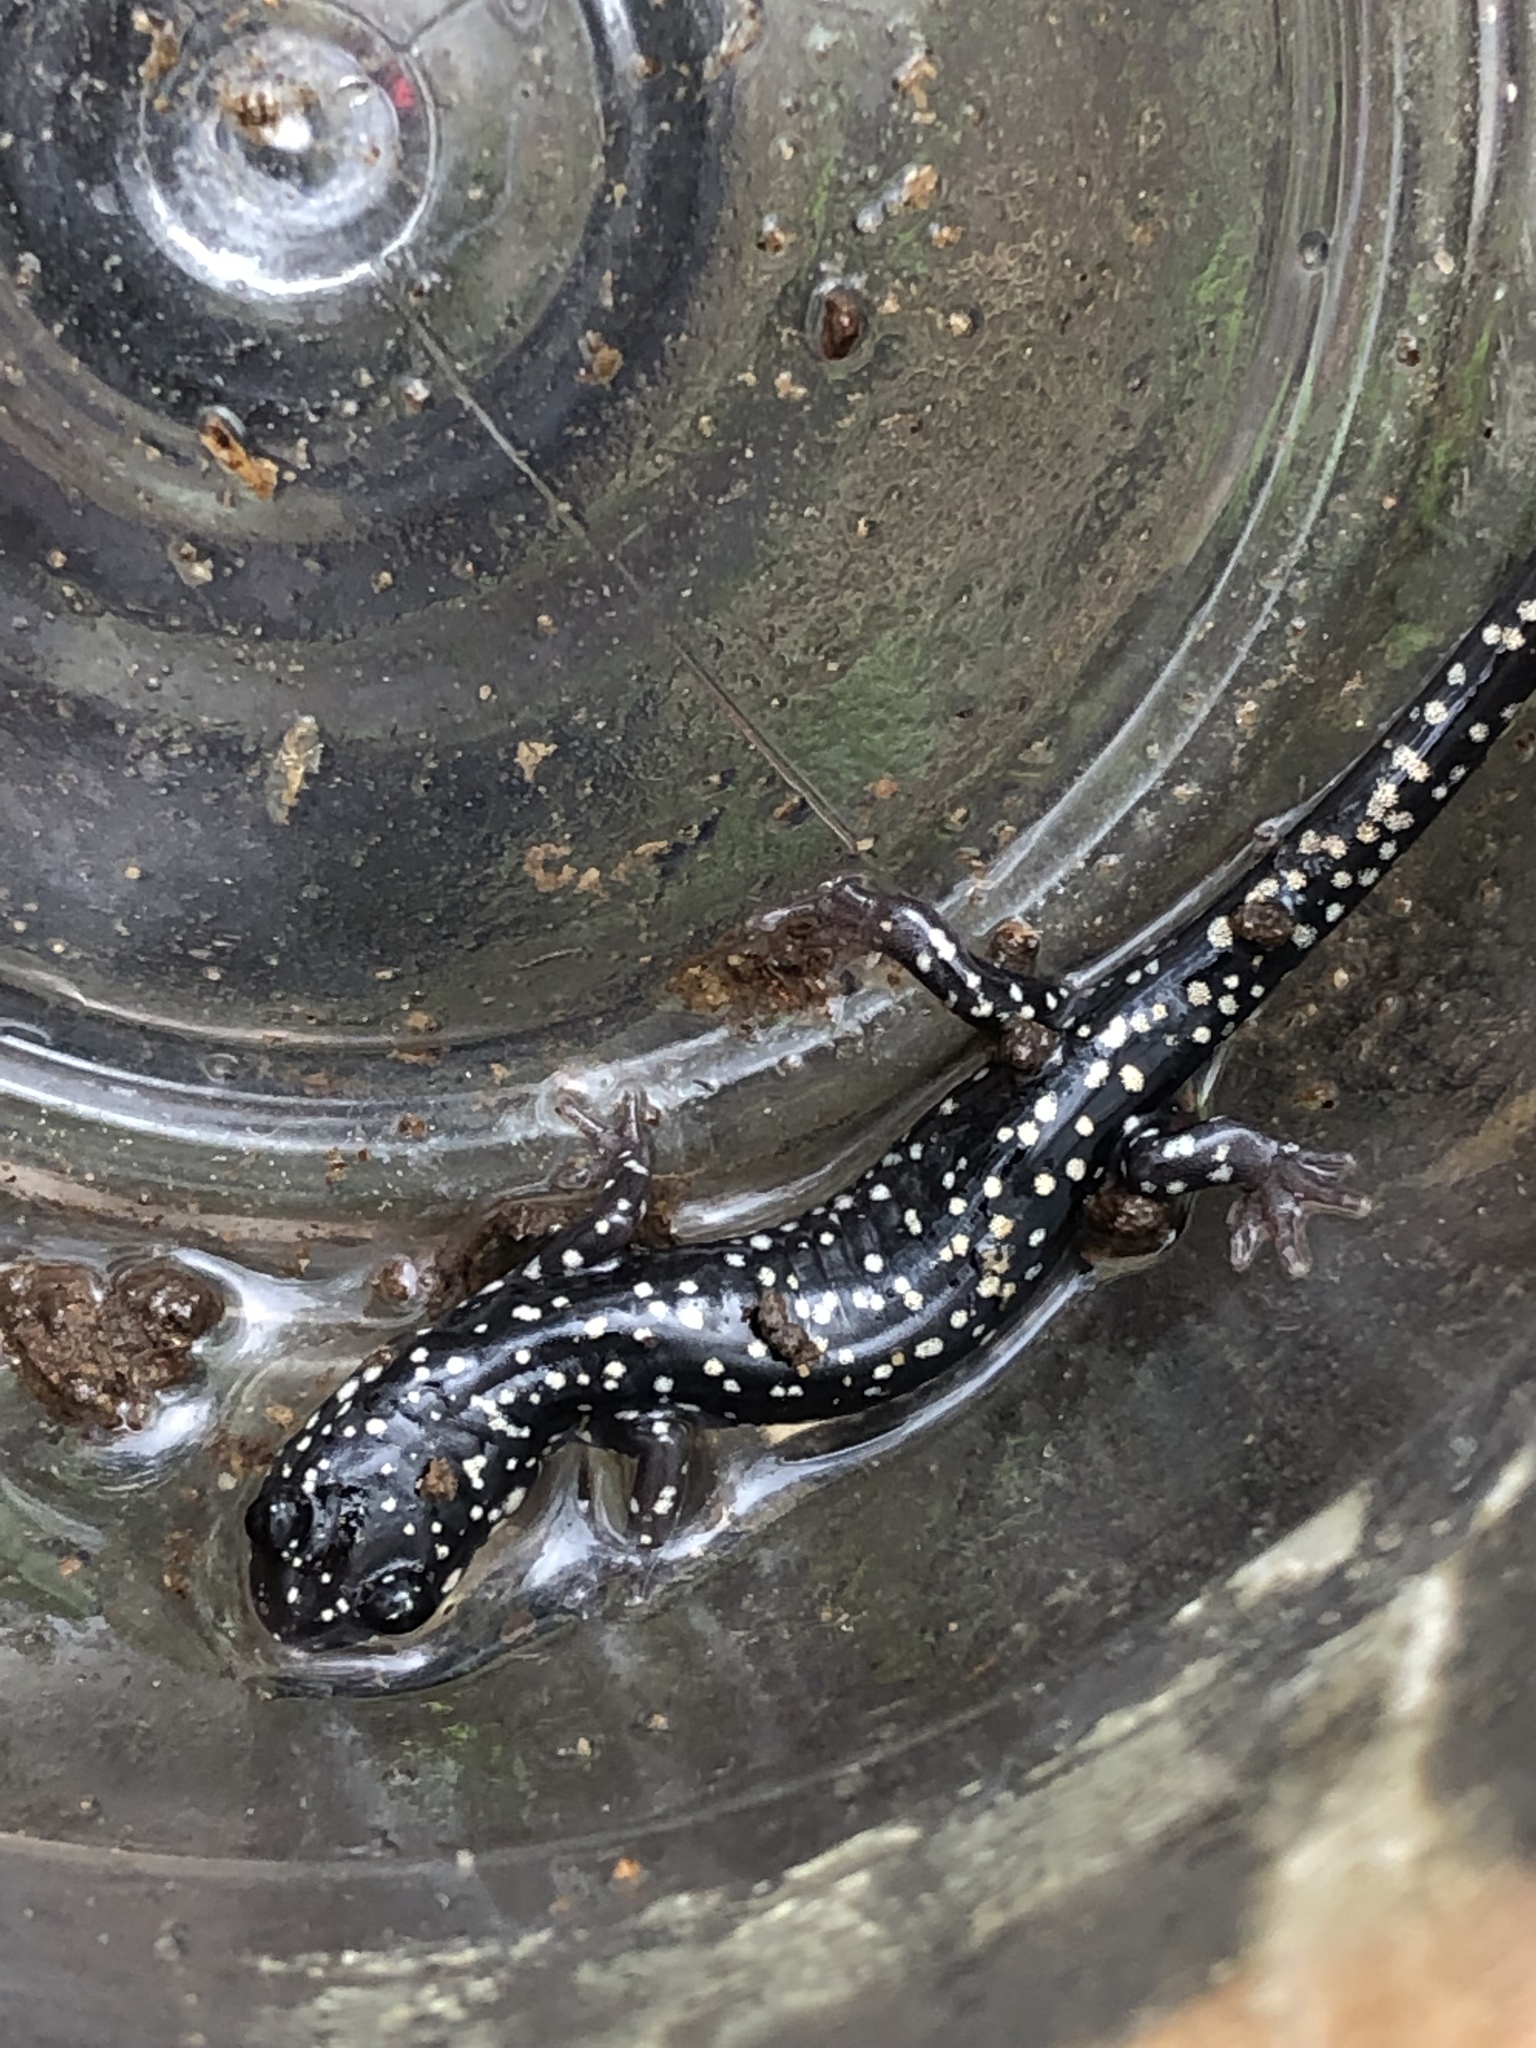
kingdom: Animalia
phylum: Chordata
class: Amphibia
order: Caudata
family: Plethodontidae
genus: Plethodon
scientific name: Plethodon glutinosus
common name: Northern slimy salamander
